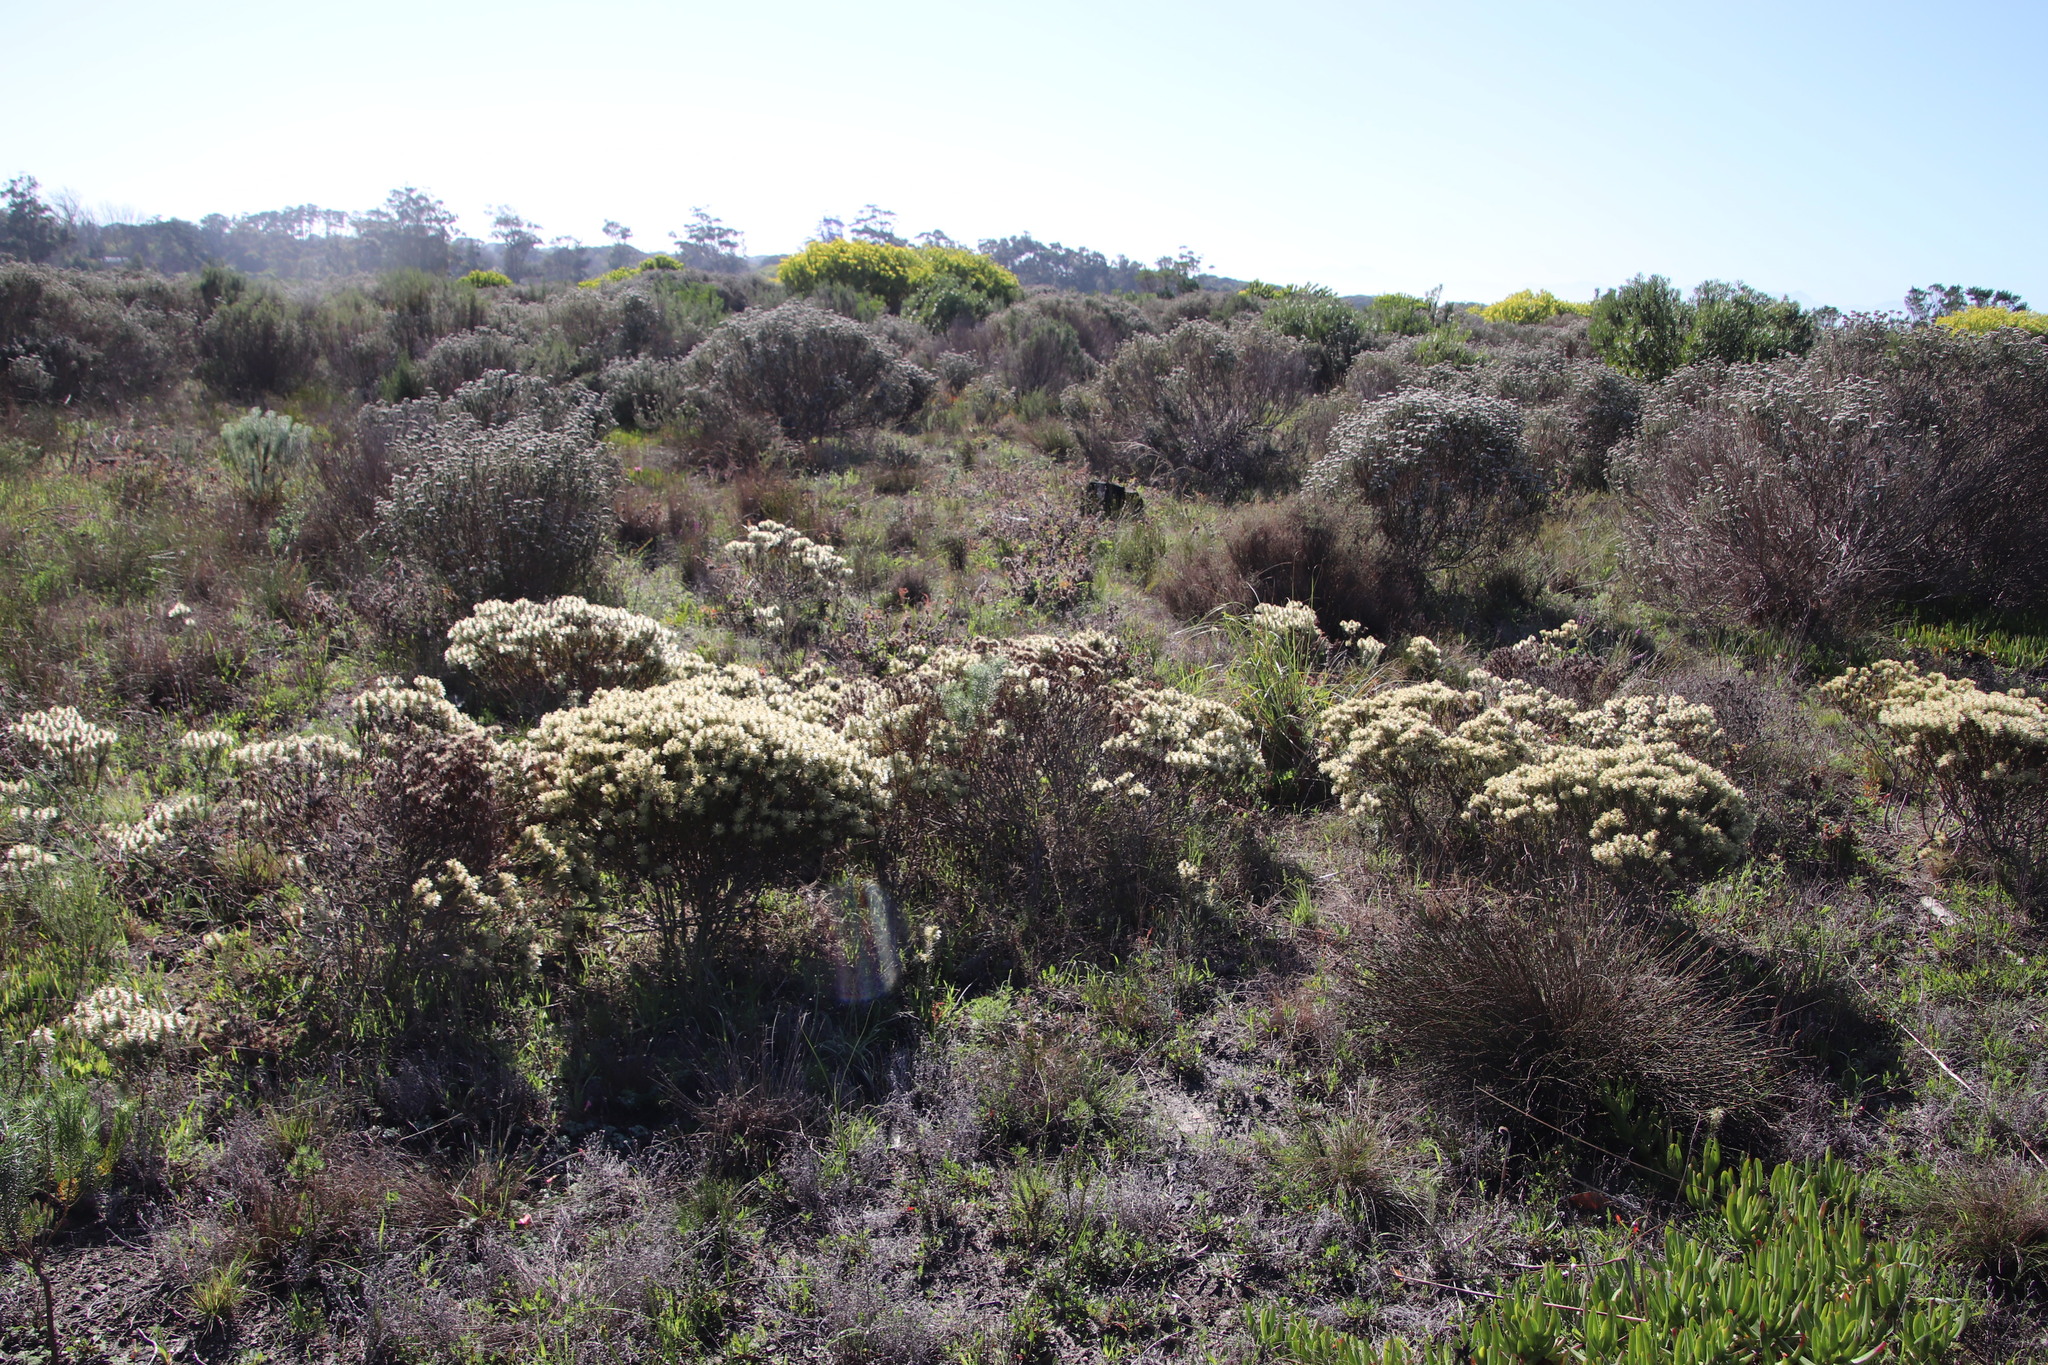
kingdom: Plantae
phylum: Tracheophyta
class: Magnoliopsida
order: Rosales
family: Rhamnaceae
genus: Phylica
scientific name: Phylica pubescens
